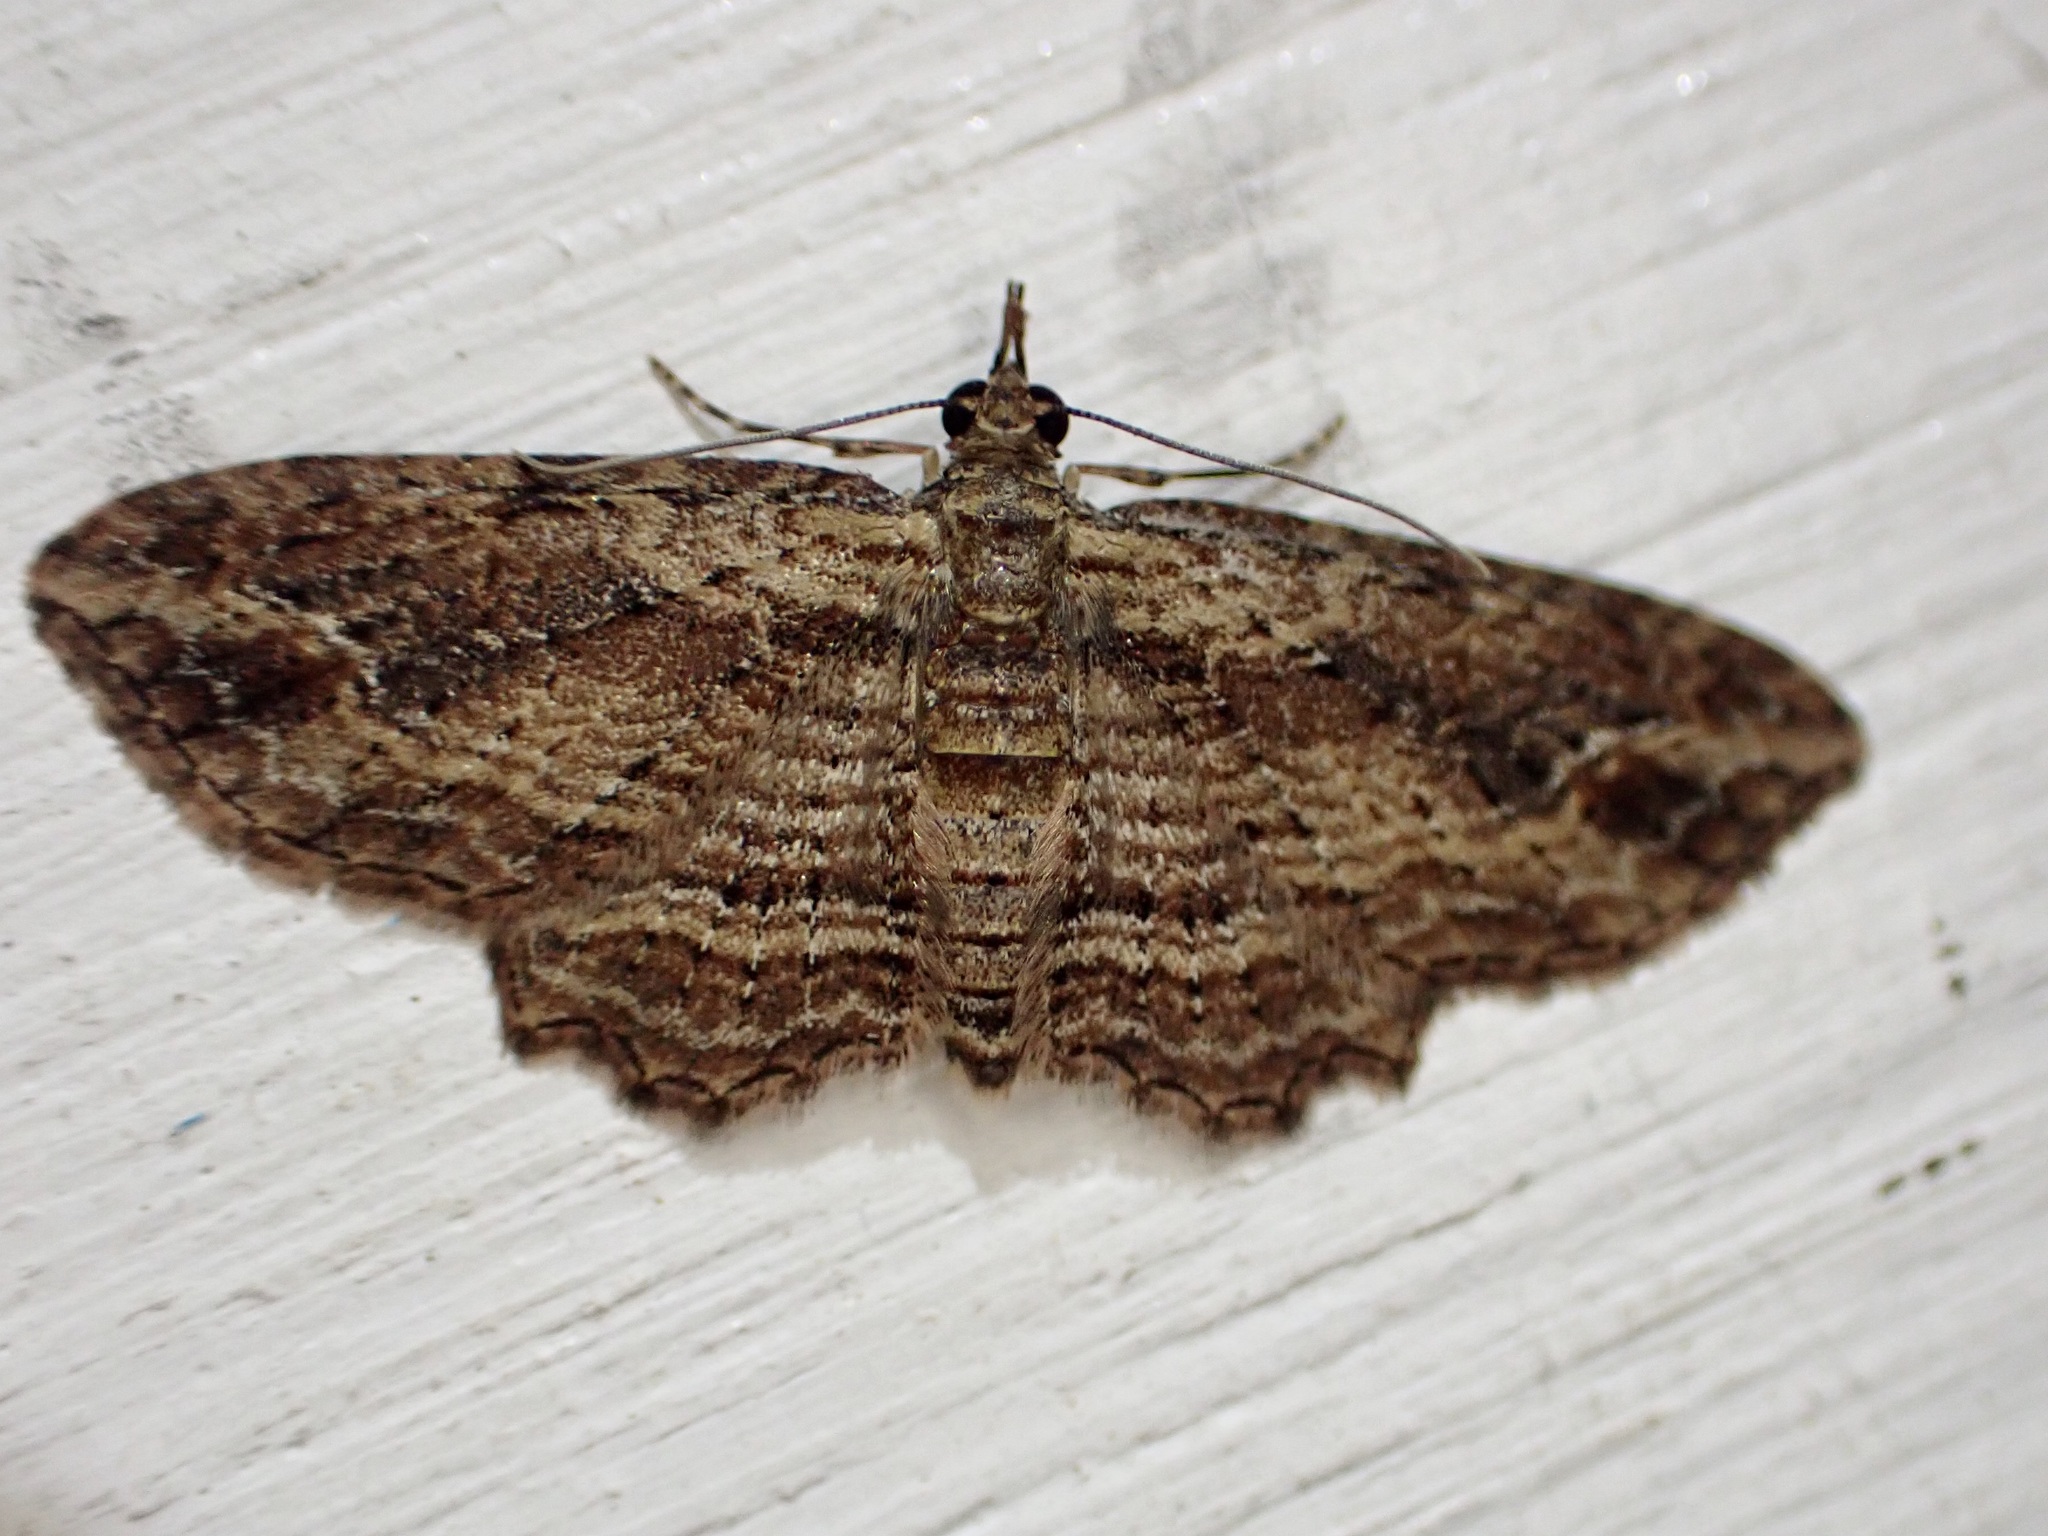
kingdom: Animalia
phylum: Arthropoda
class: Insecta
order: Lepidoptera
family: Geometridae
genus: Chloroclystis
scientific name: Chloroclystis filata
